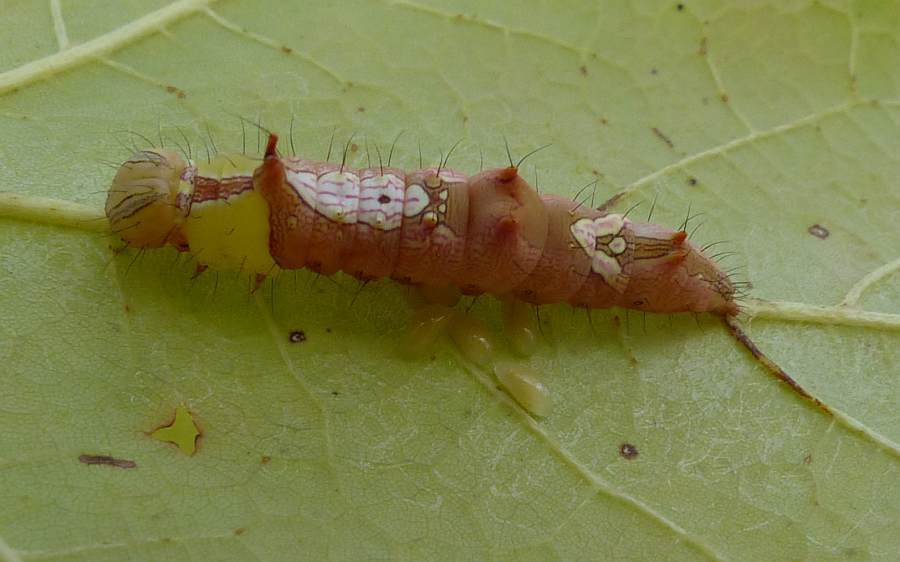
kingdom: Animalia
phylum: Arthropoda
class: Insecta
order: Lepidoptera
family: Notodontidae
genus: Schizura
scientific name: Schizura ipomaeae
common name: Morning-glory prominent
